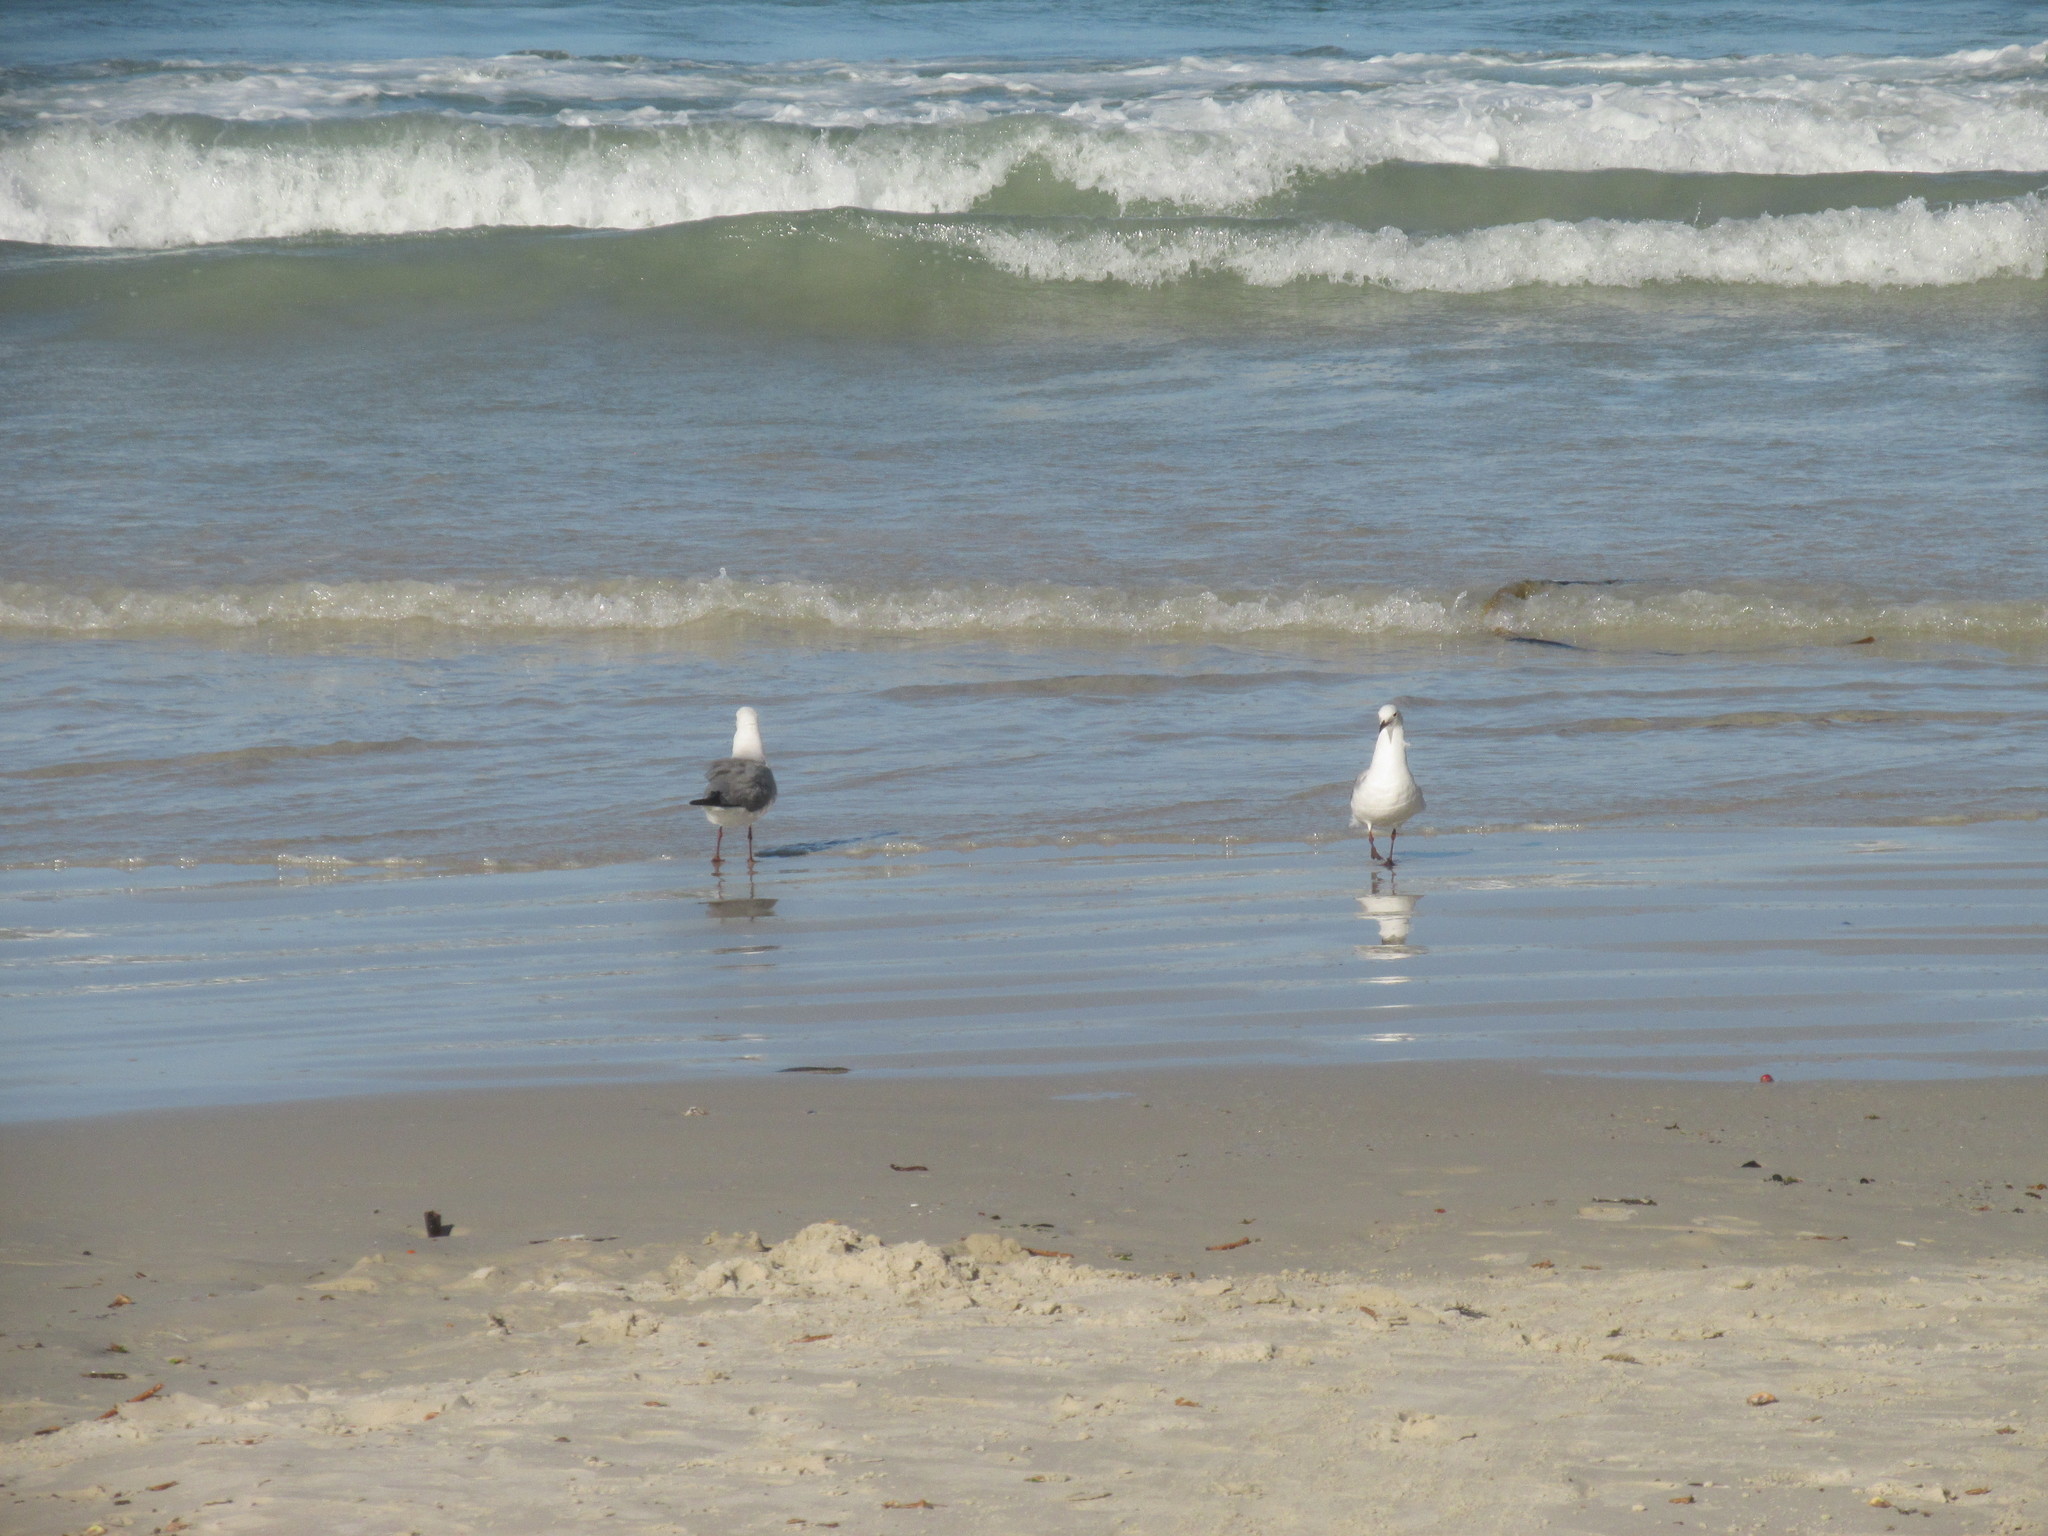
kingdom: Animalia
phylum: Chordata
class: Aves
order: Charadriiformes
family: Laridae
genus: Chroicocephalus
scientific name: Chroicocephalus hartlaubii
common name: Hartlaub's gull
